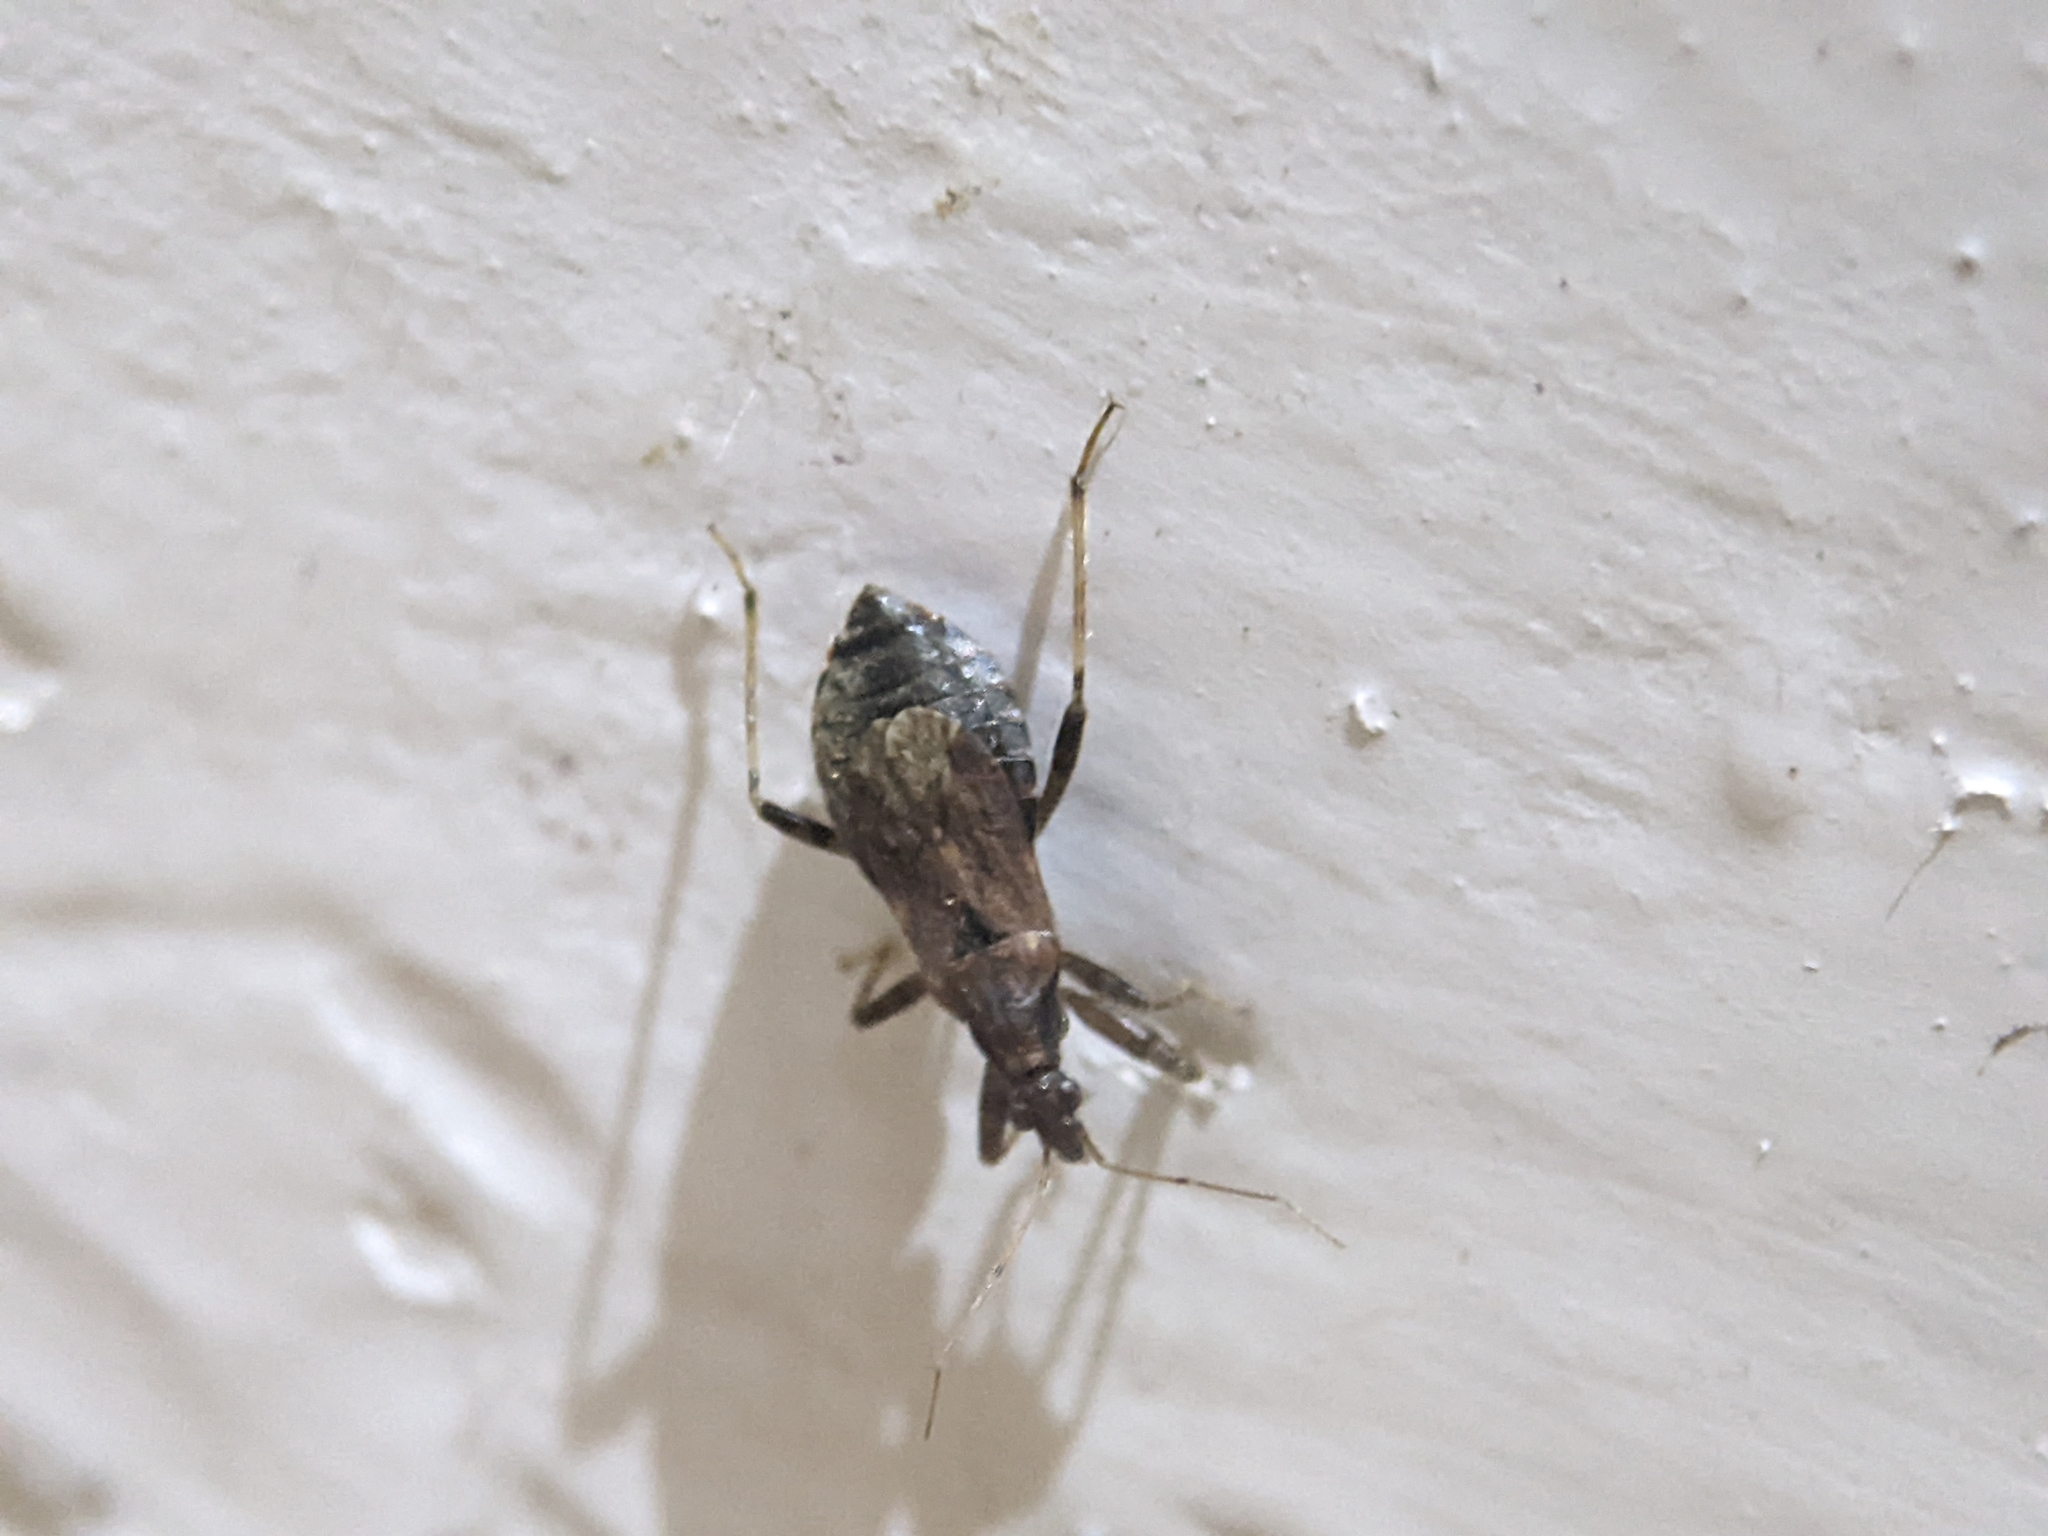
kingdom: Animalia
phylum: Arthropoda
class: Insecta
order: Hemiptera
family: Nabidae
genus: Himacerus
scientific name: Himacerus mirmicoides
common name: Ant damsel bug
